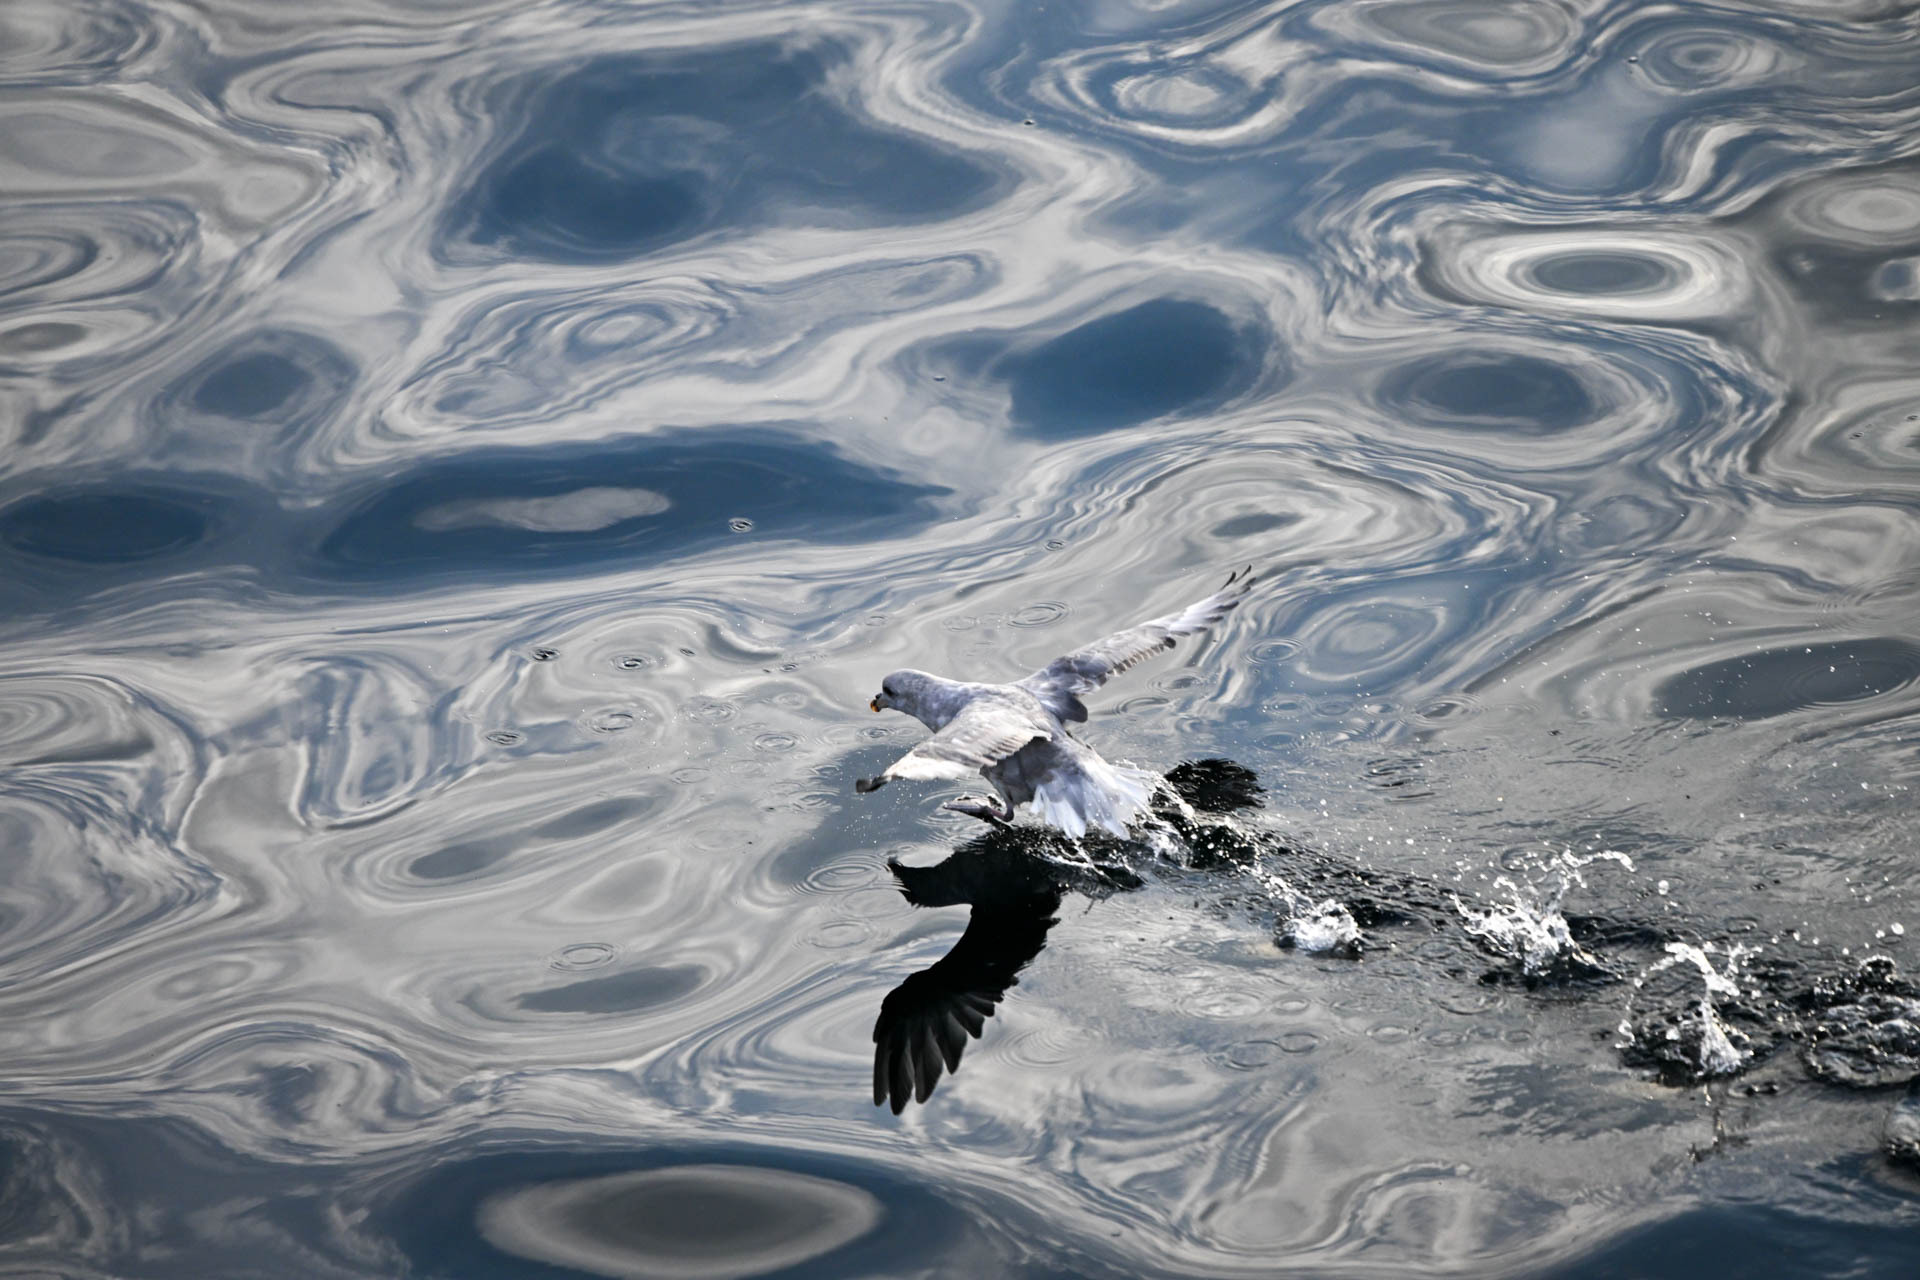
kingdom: Animalia
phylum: Chordata
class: Aves
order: Procellariiformes
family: Procellariidae
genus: Fulmarus
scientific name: Fulmarus glacialis
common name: Northern fulmar
